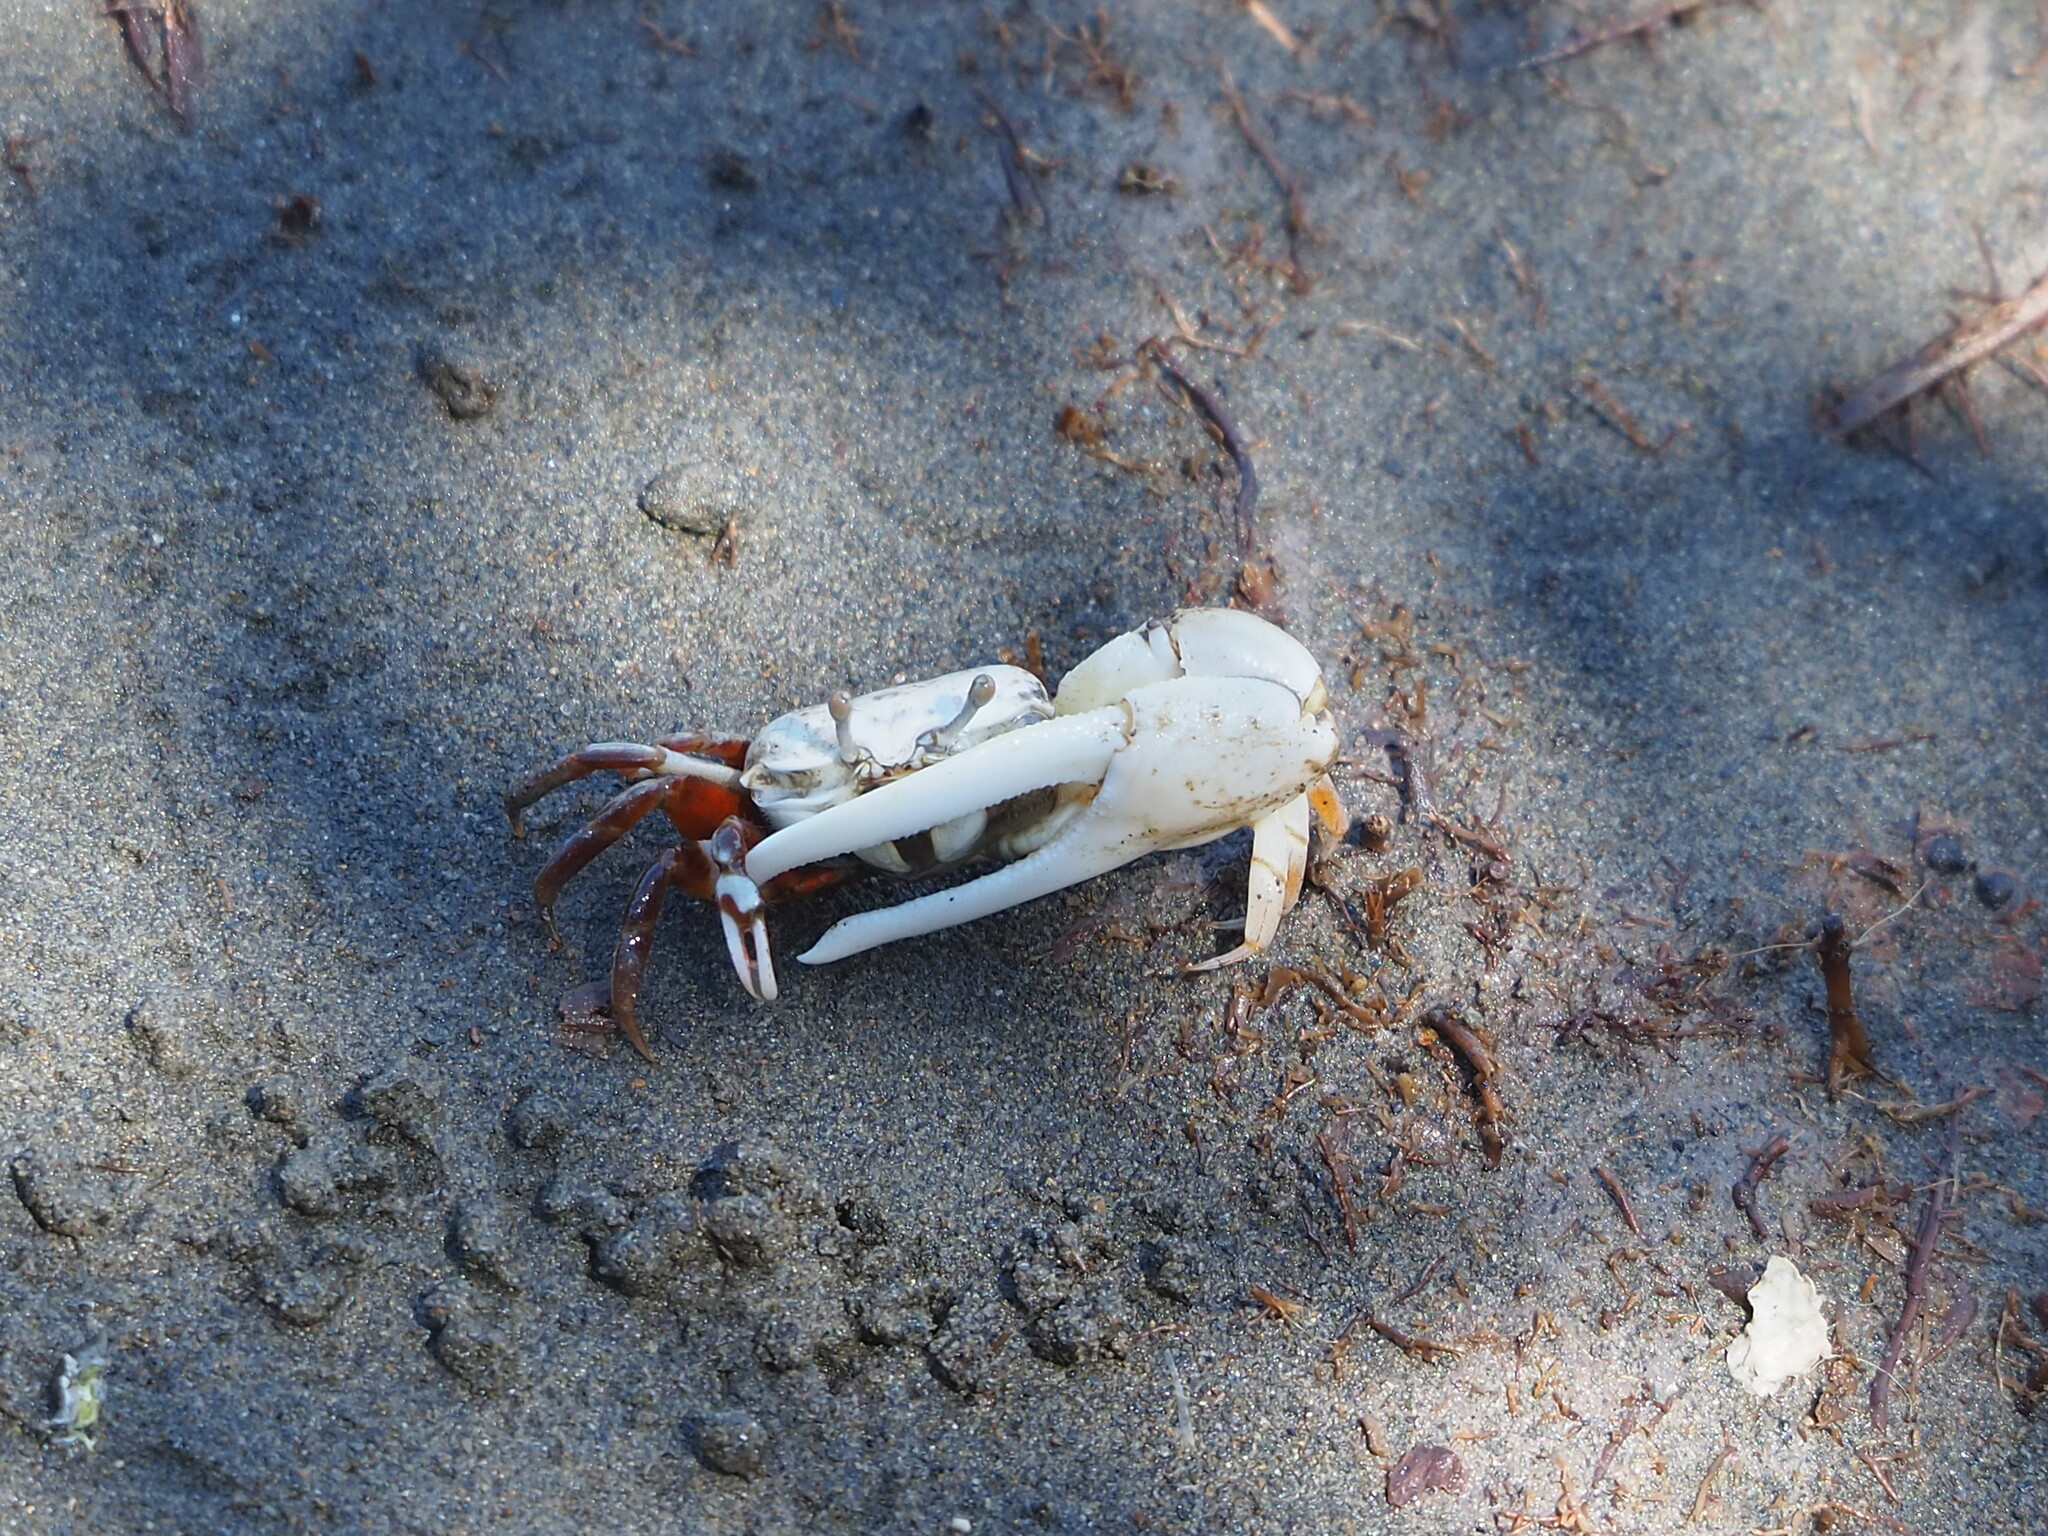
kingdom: Animalia
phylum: Arthropoda
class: Malacostraca
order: Decapoda
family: Ocypodidae
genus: Austruca
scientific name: Austruca lactea
